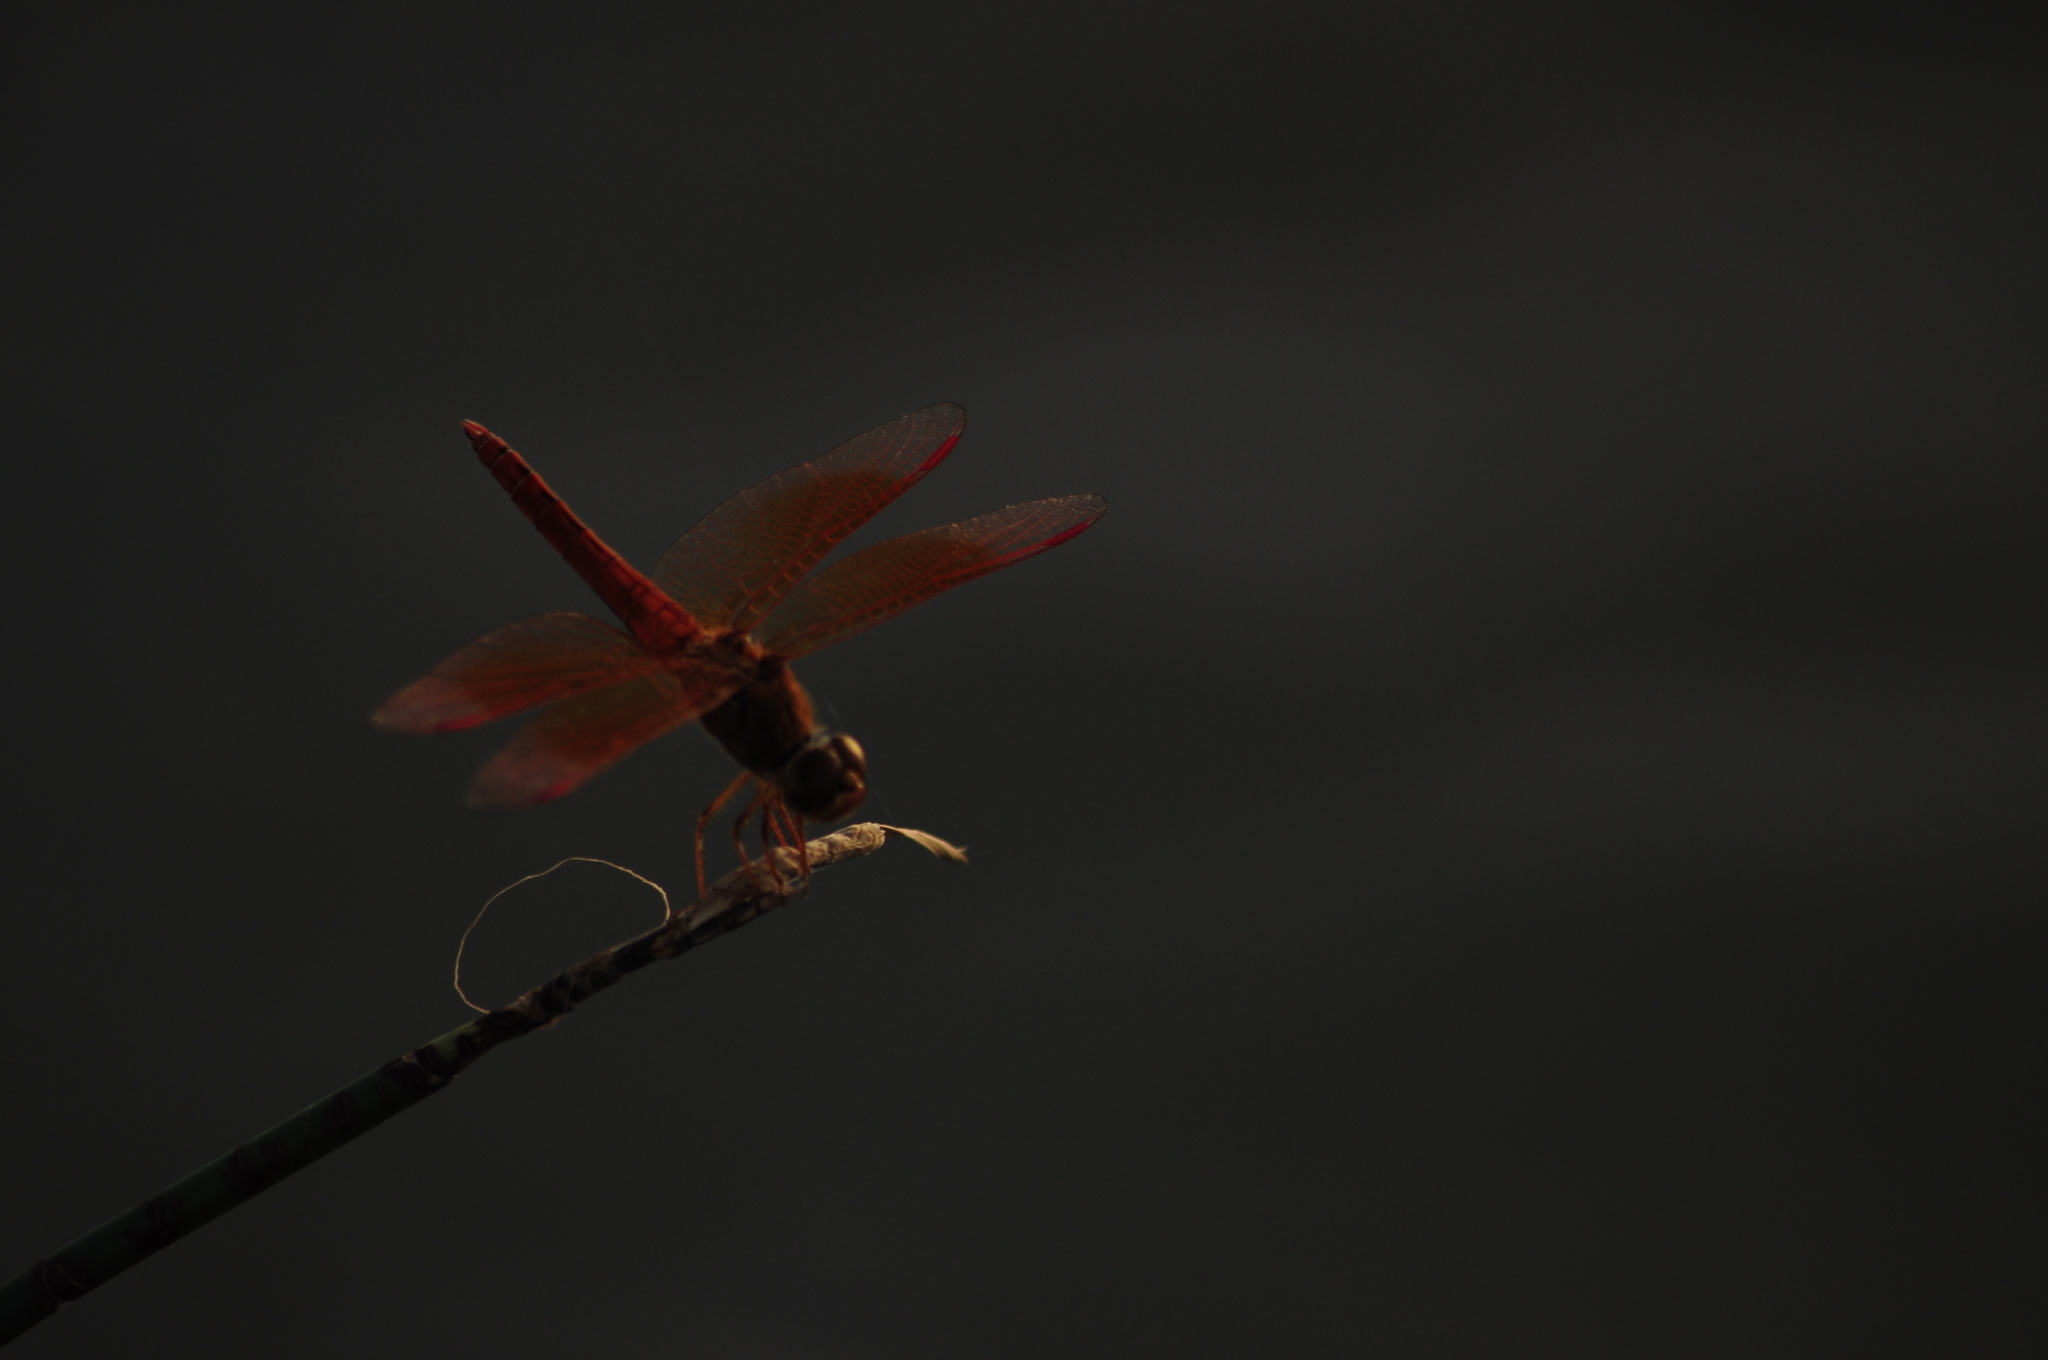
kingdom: Animalia
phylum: Arthropoda
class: Insecta
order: Odonata
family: Libellulidae
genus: Brachythemis
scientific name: Brachythemis contaminata
